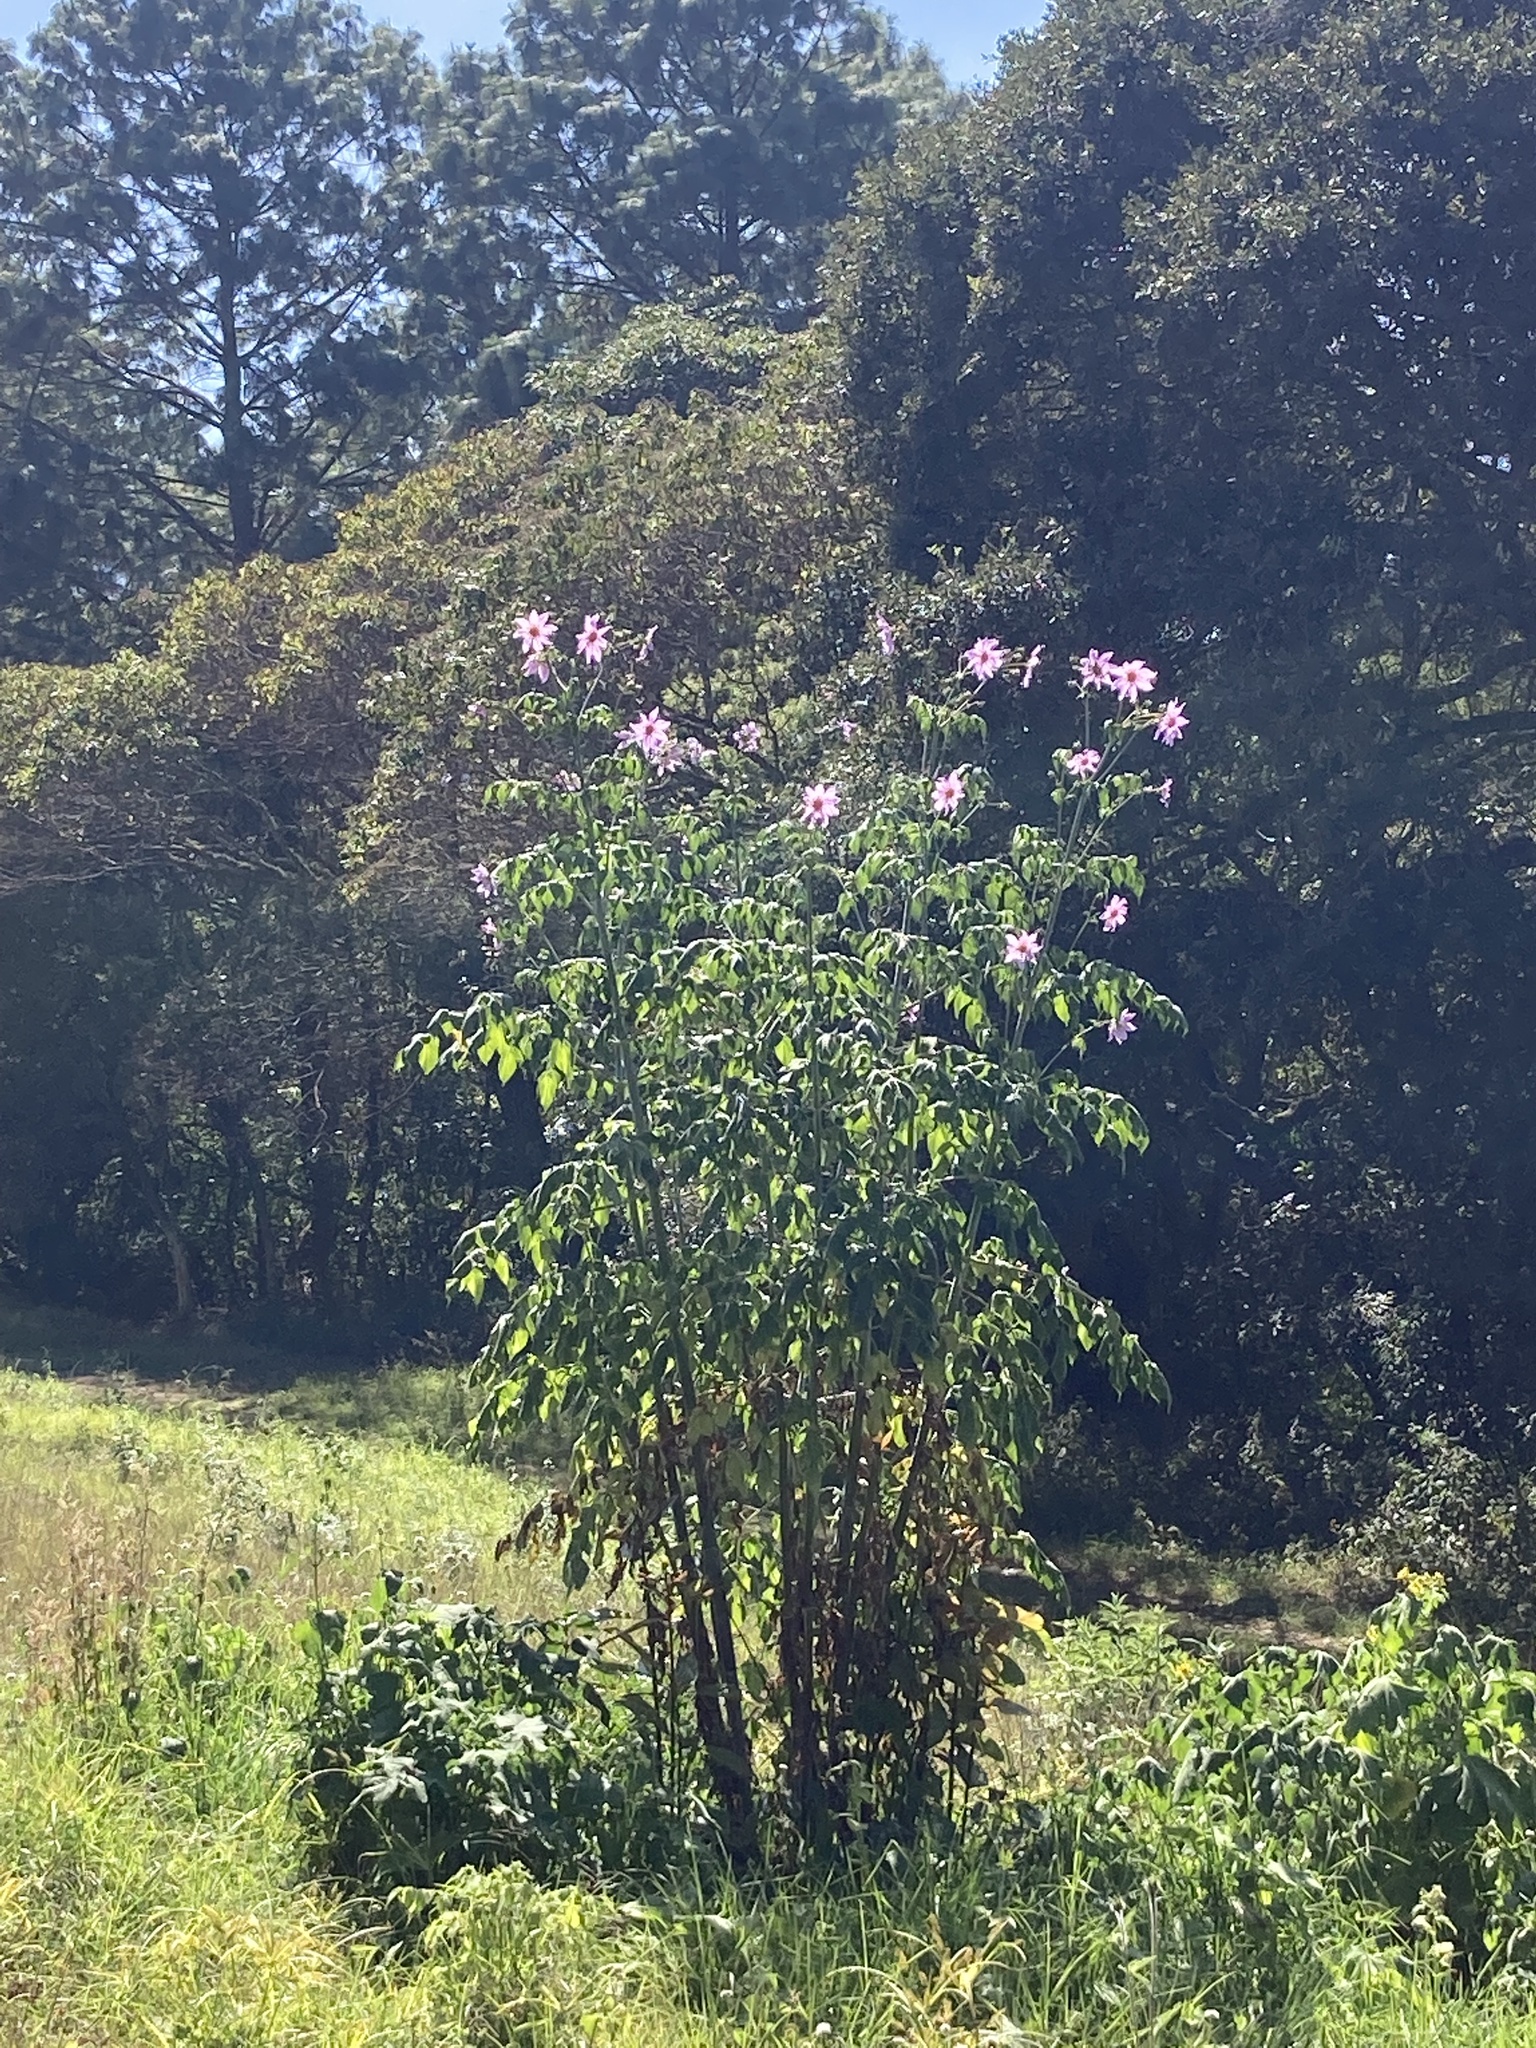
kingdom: Plantae
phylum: Tracheophyta
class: Magnoliopsida
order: Asterales
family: Asteraceae
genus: Dahlia
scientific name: Dahlia imperialis
